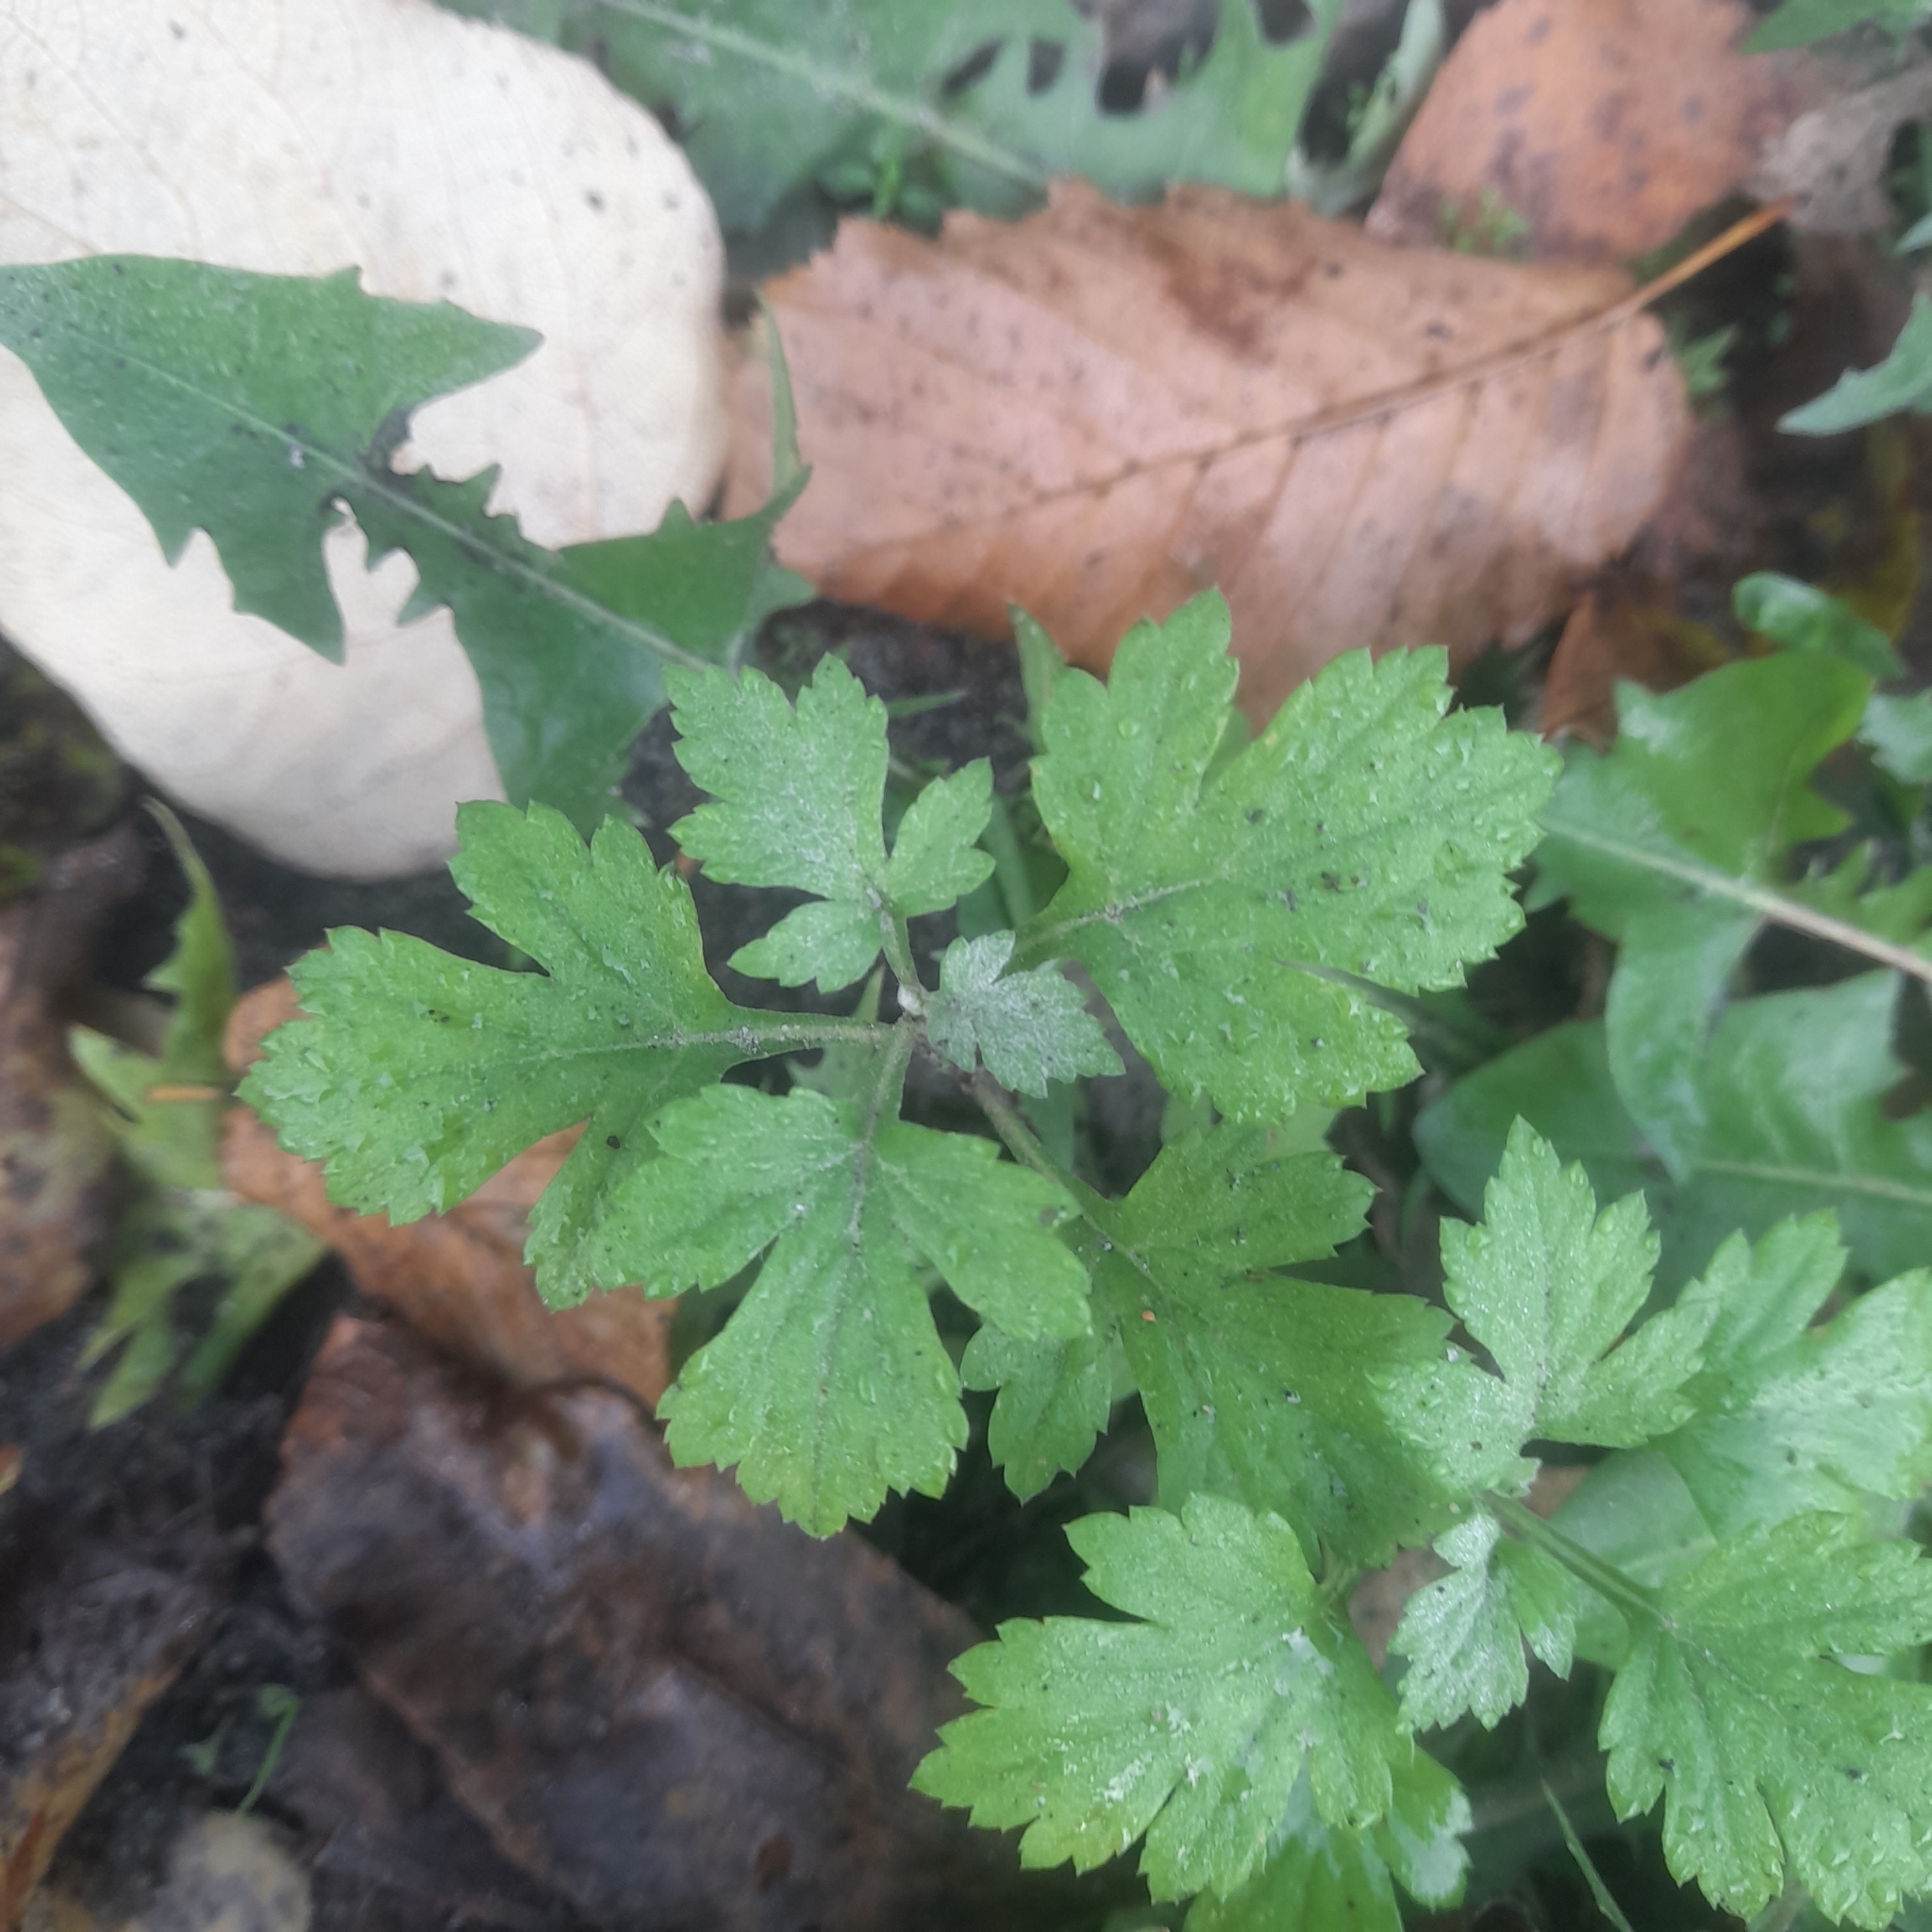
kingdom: Plantae
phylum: Tracheophyta
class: Magnoliopsida
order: Asterales
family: Asteraceae
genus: Artemisia
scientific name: Artemisia vulgaris
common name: Mugwort
